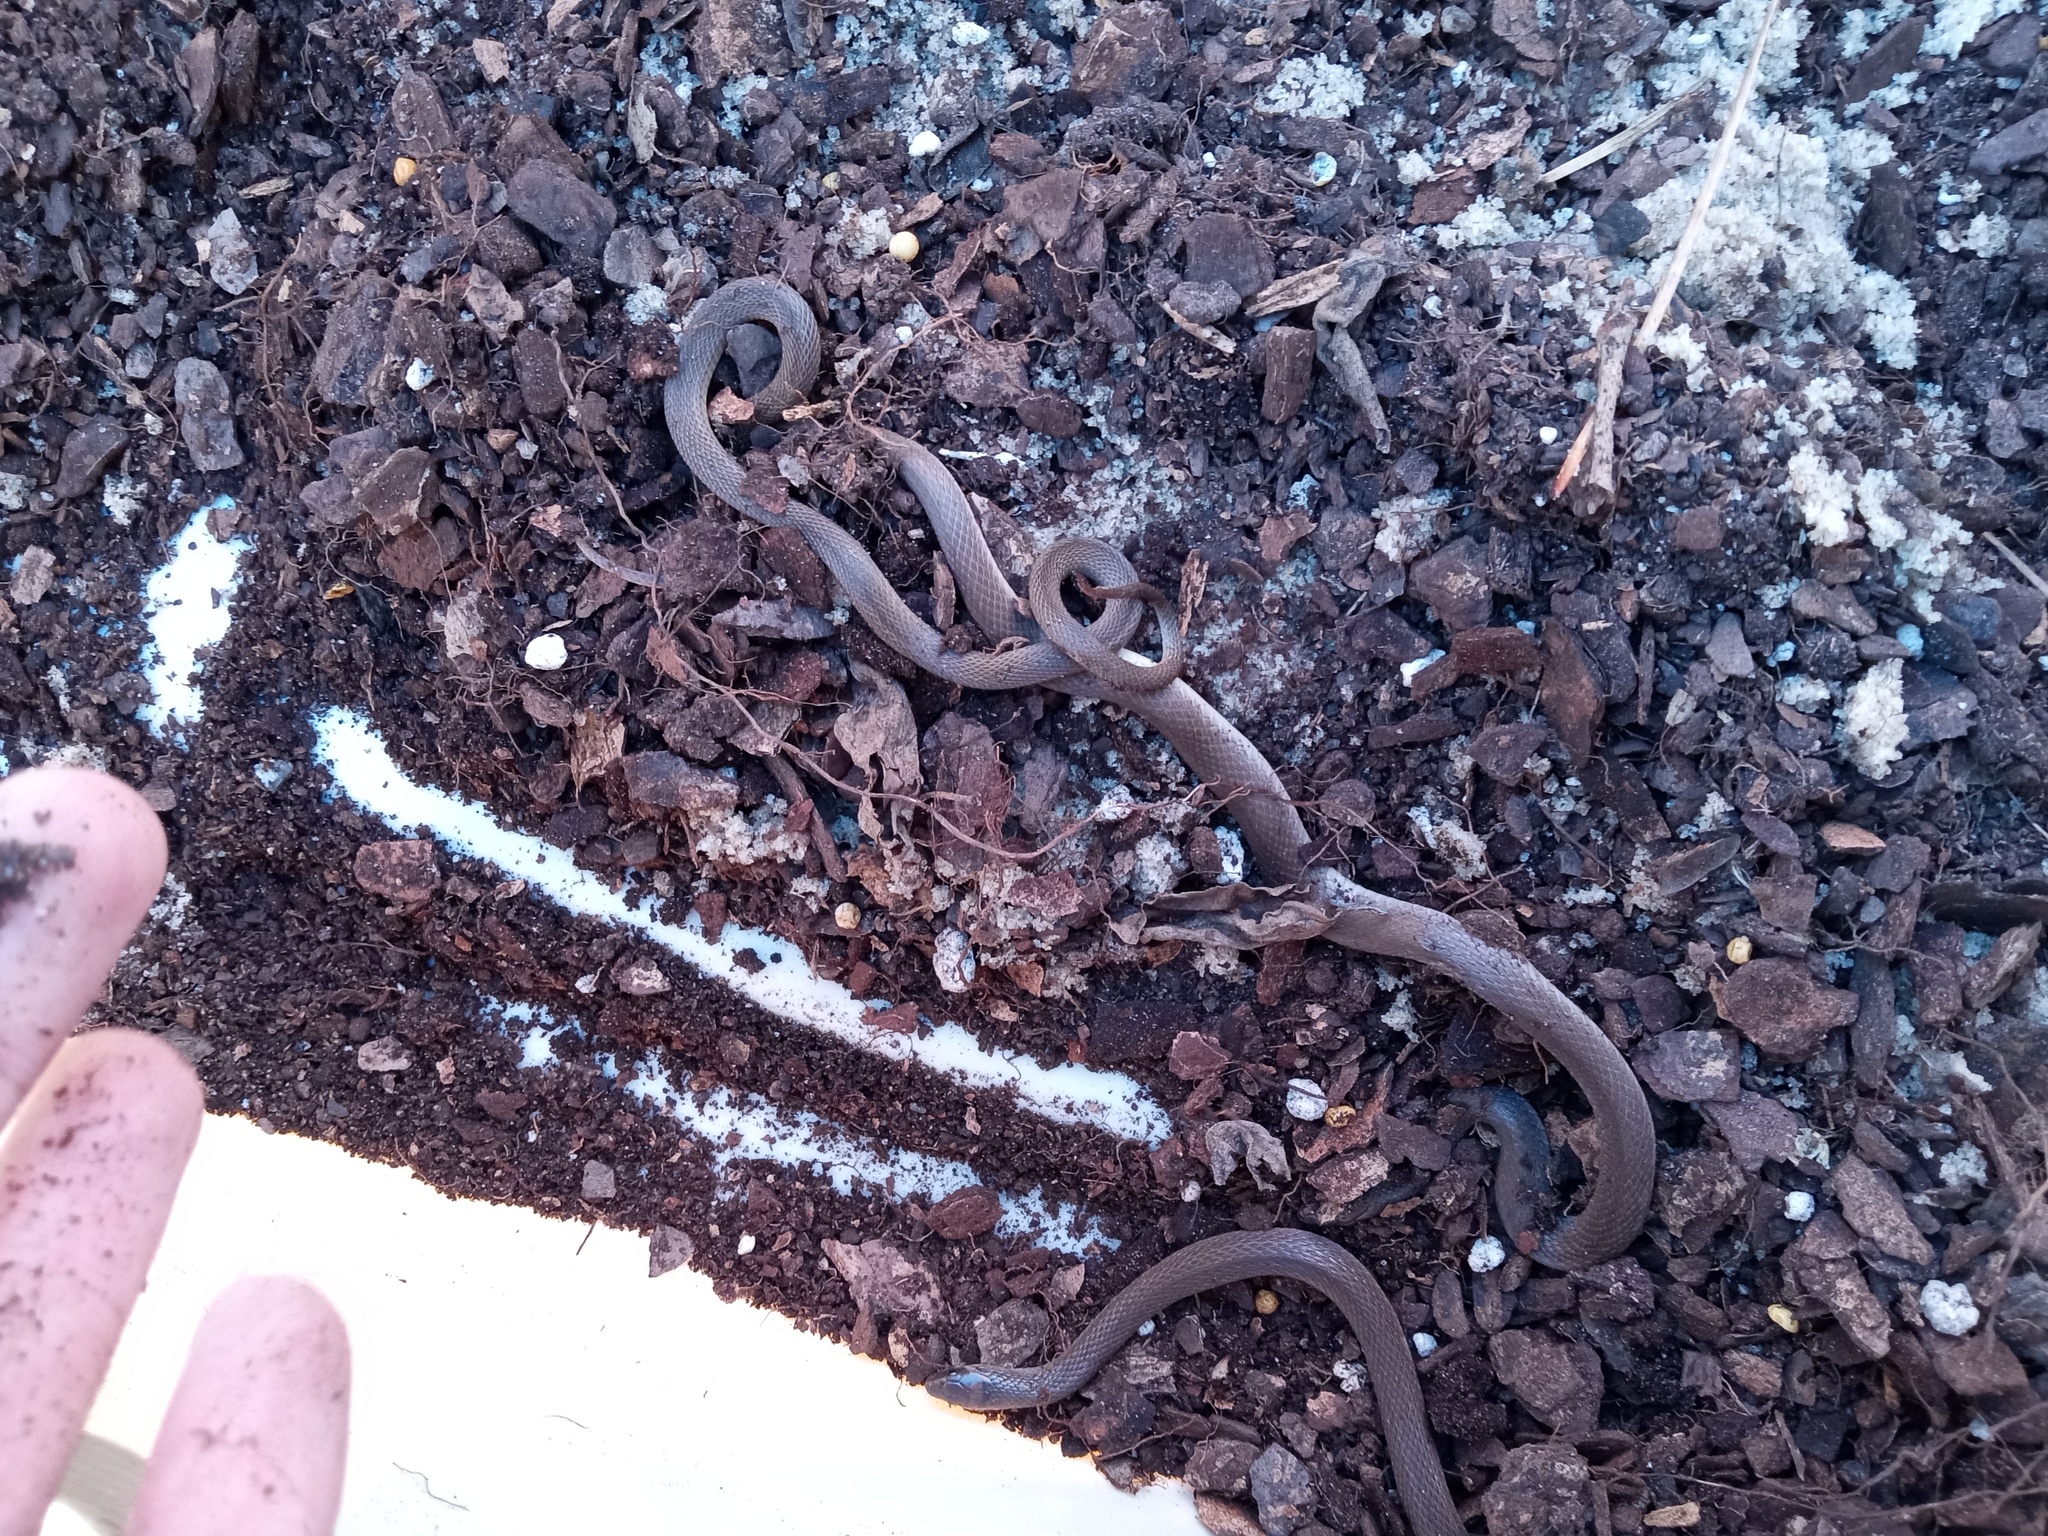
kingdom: Animalia
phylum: Chordata
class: Squamata
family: Colubridae
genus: Haldea
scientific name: Haldea striatula
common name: Rough earth snake
